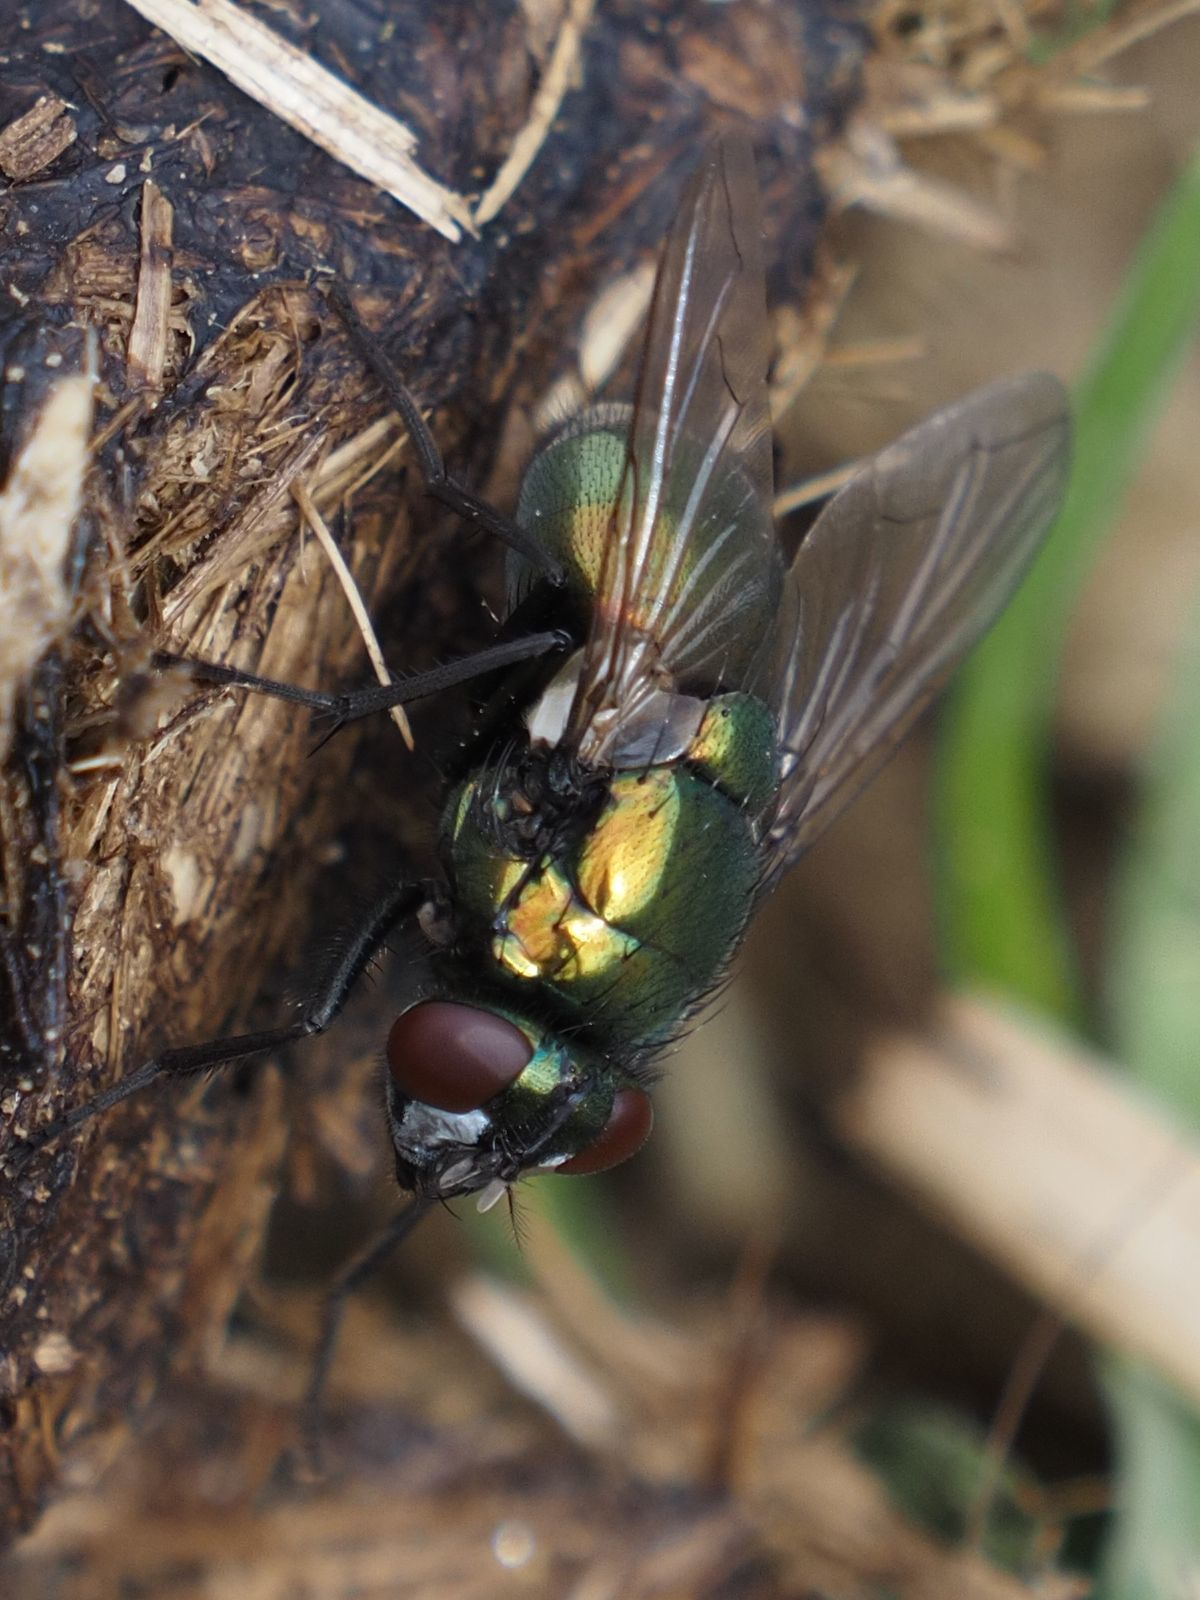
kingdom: Animalia
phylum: Arthropoda
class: Insecta
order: Diptera
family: Muscidae
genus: Neomyia
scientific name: Neomyia cornicina
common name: House fly
